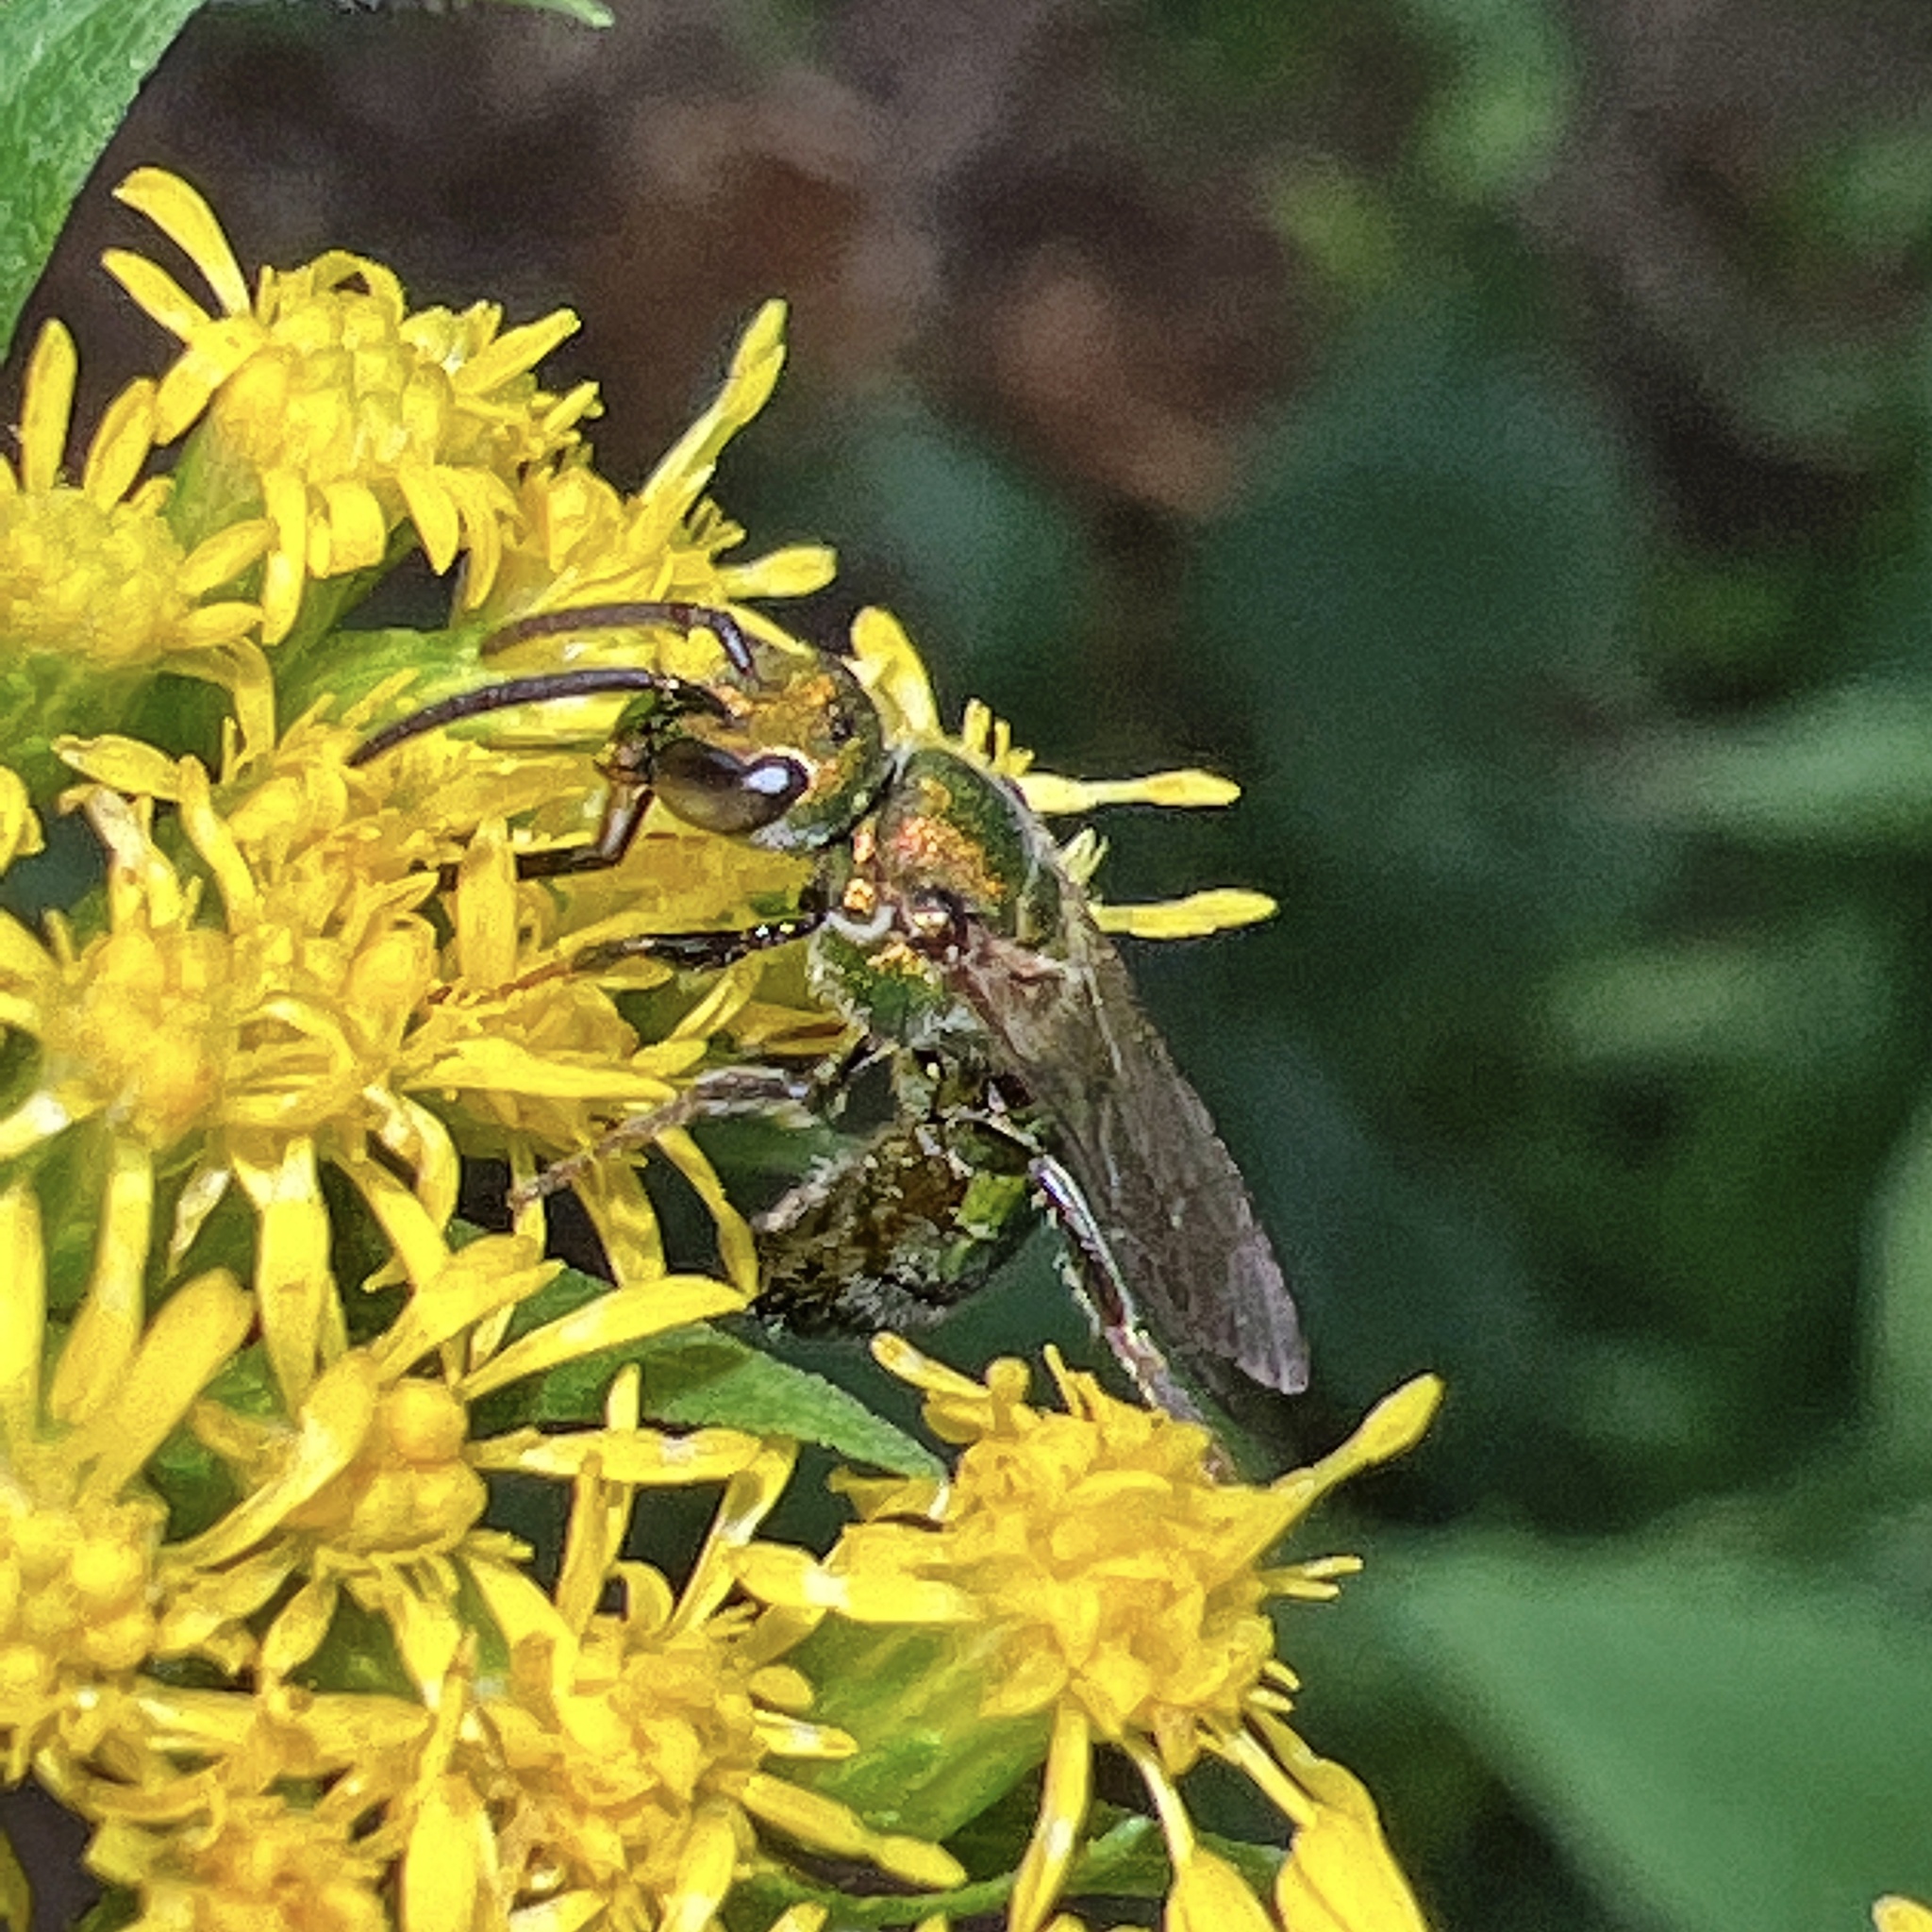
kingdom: Animalia
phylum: Arthropoda
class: Insecta
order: Hymenoptera
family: Halictidae
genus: Augochlora
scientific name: Augochlora pura
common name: Pure green sweat bee
